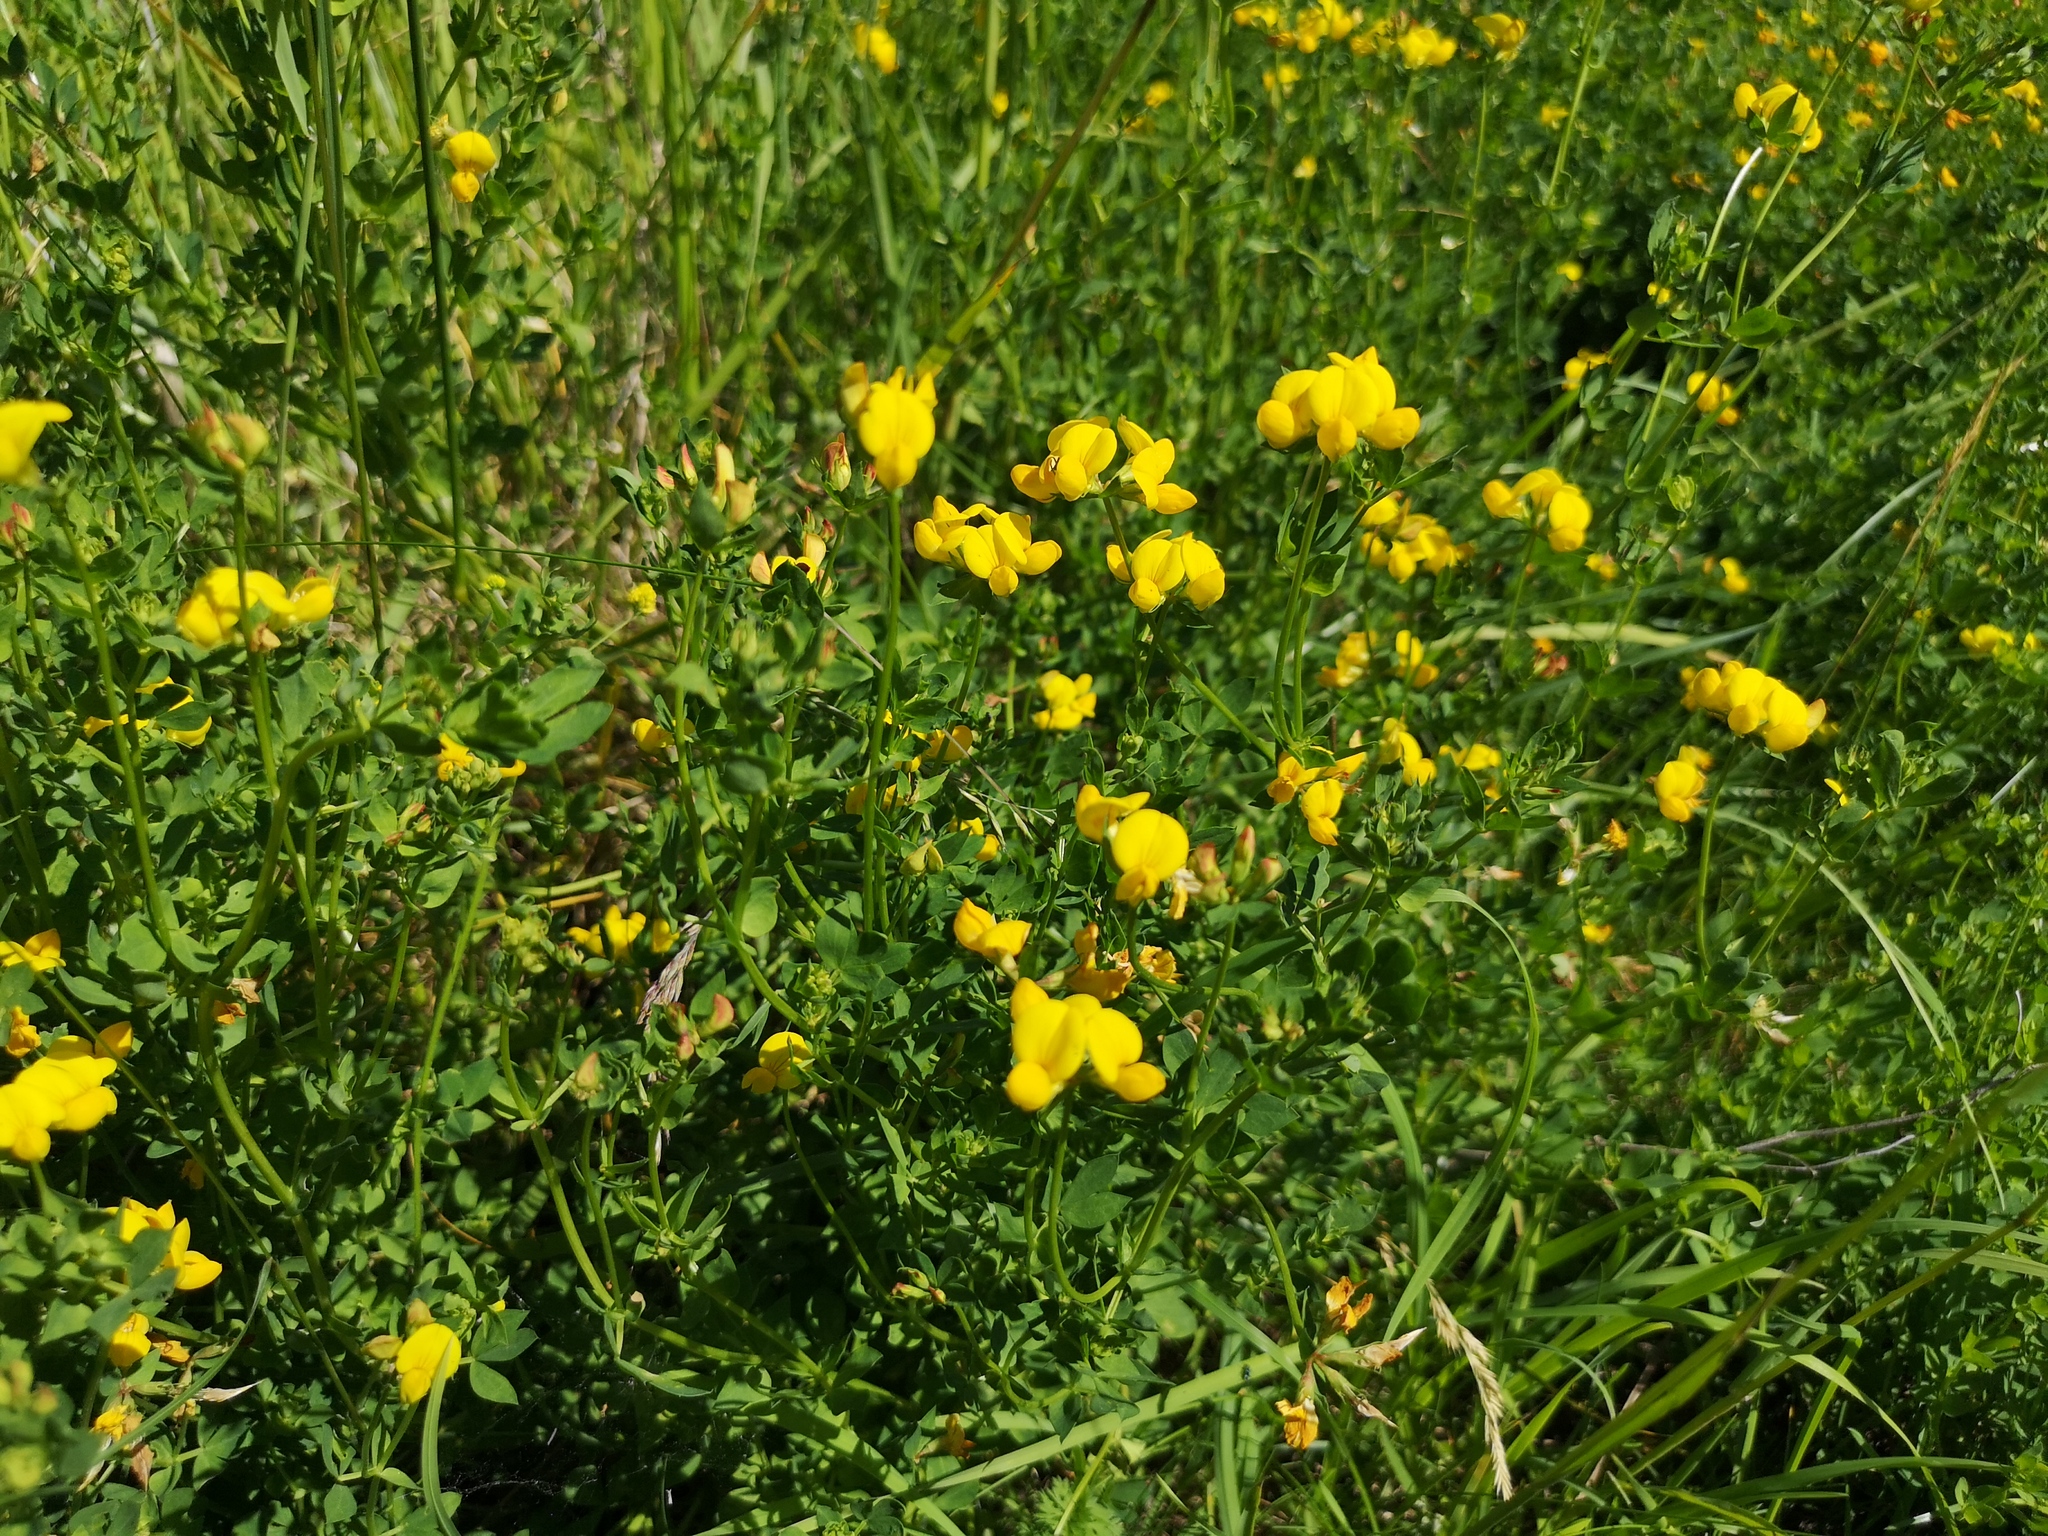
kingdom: Plantae
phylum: Tracheophyta
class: Magnoliopsida
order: Fabales
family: Fabaceae
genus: Lotus
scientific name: Lotus corniculatus
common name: Common bird's-foot-trefoil
